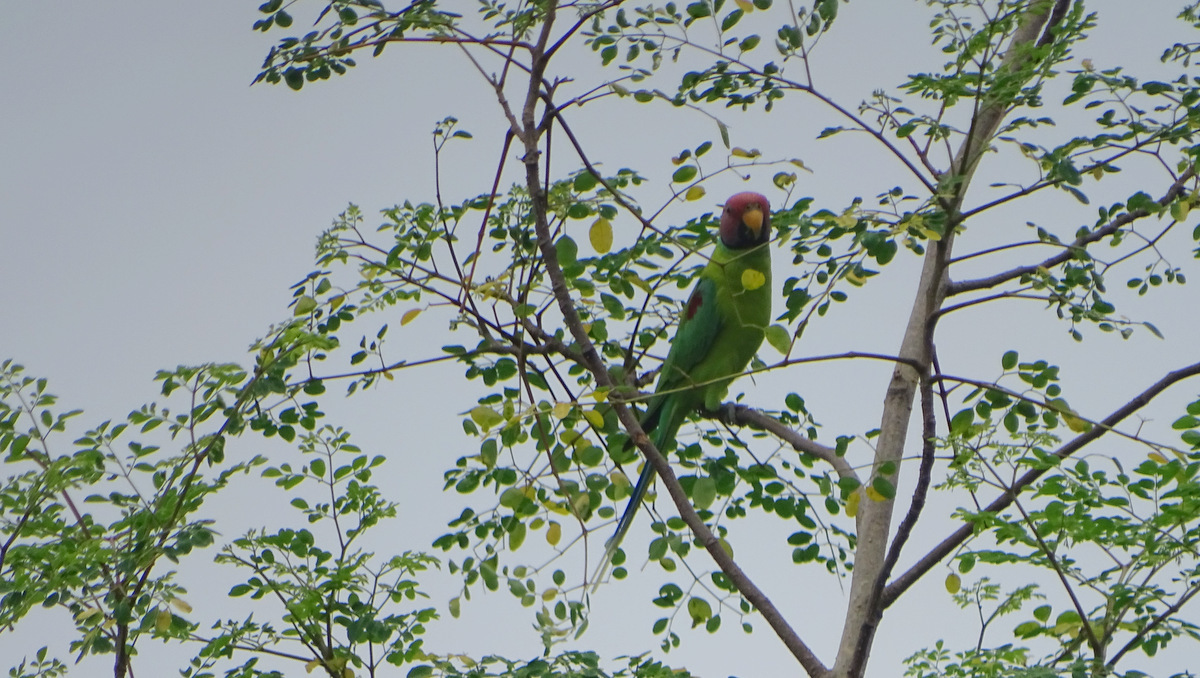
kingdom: Animalia
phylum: Chordata
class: Aves
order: Psittaciformes
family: Psittacidae
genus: Psittacula
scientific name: Psittacula cyanocephala
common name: Plum-headed parakeet
